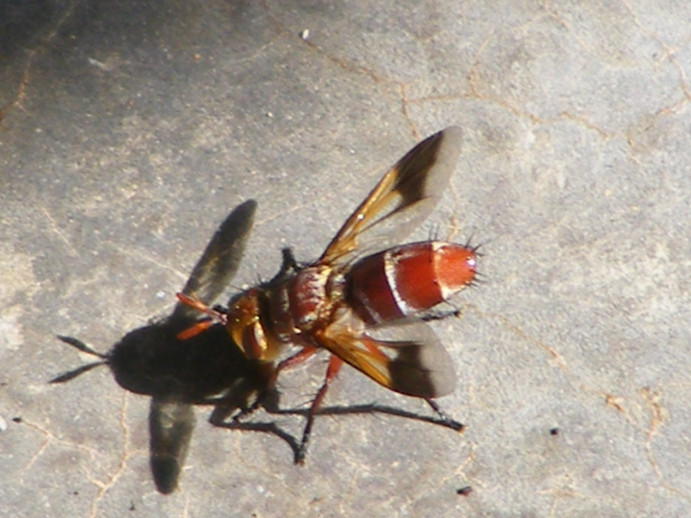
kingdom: Animalia
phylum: Arthropoda
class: Insecta
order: Diptera
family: Tachinidae
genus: Chromatophania
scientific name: Chromatophania picta
